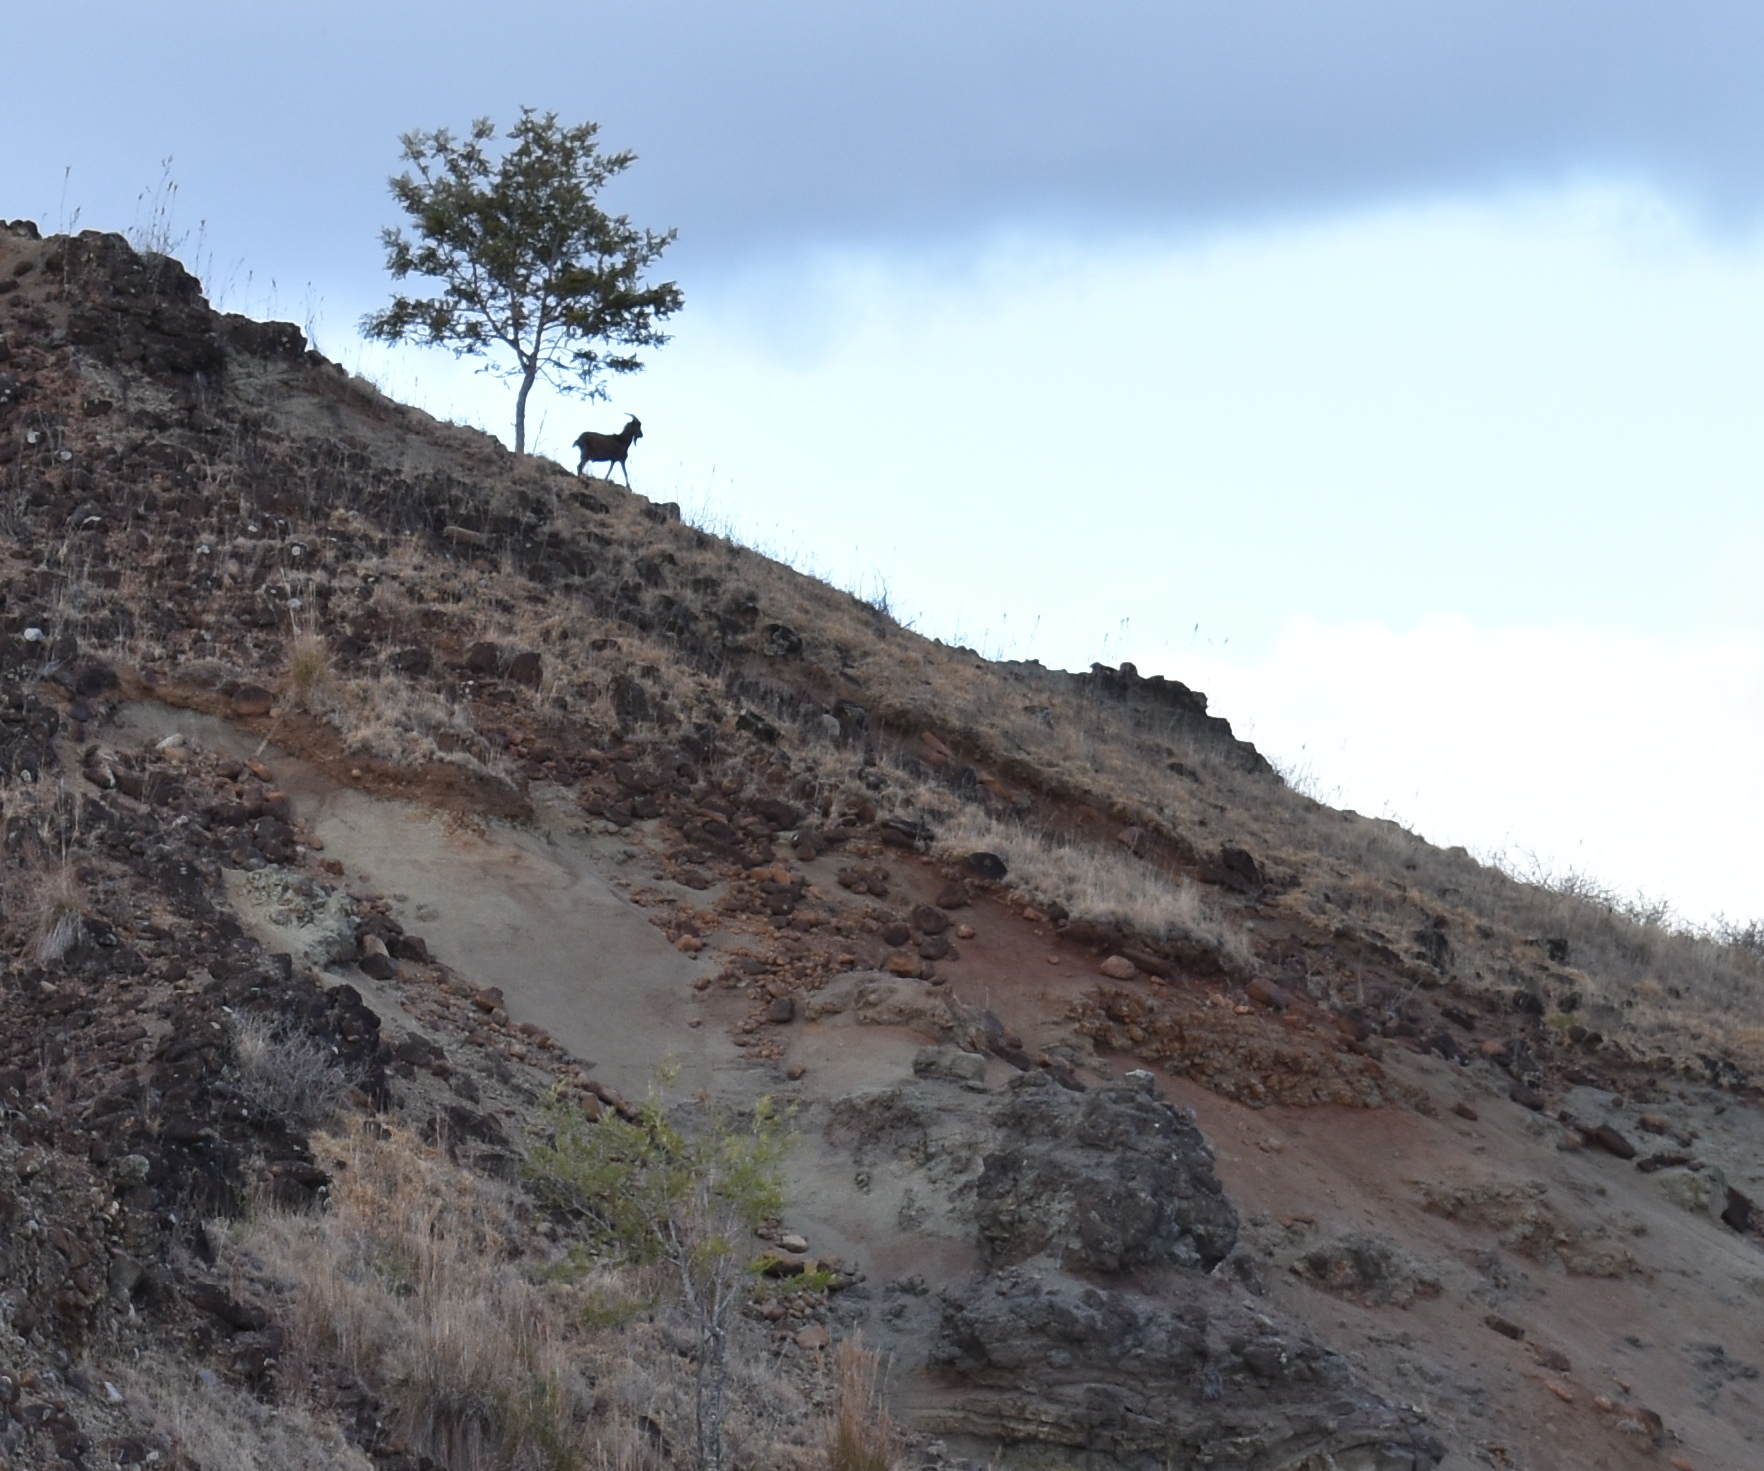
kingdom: Animalia
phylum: Chordata
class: Mammalia
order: Artiodactyla
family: Bovidae
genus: Capra
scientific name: Capra hircus
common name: Domestic goat
